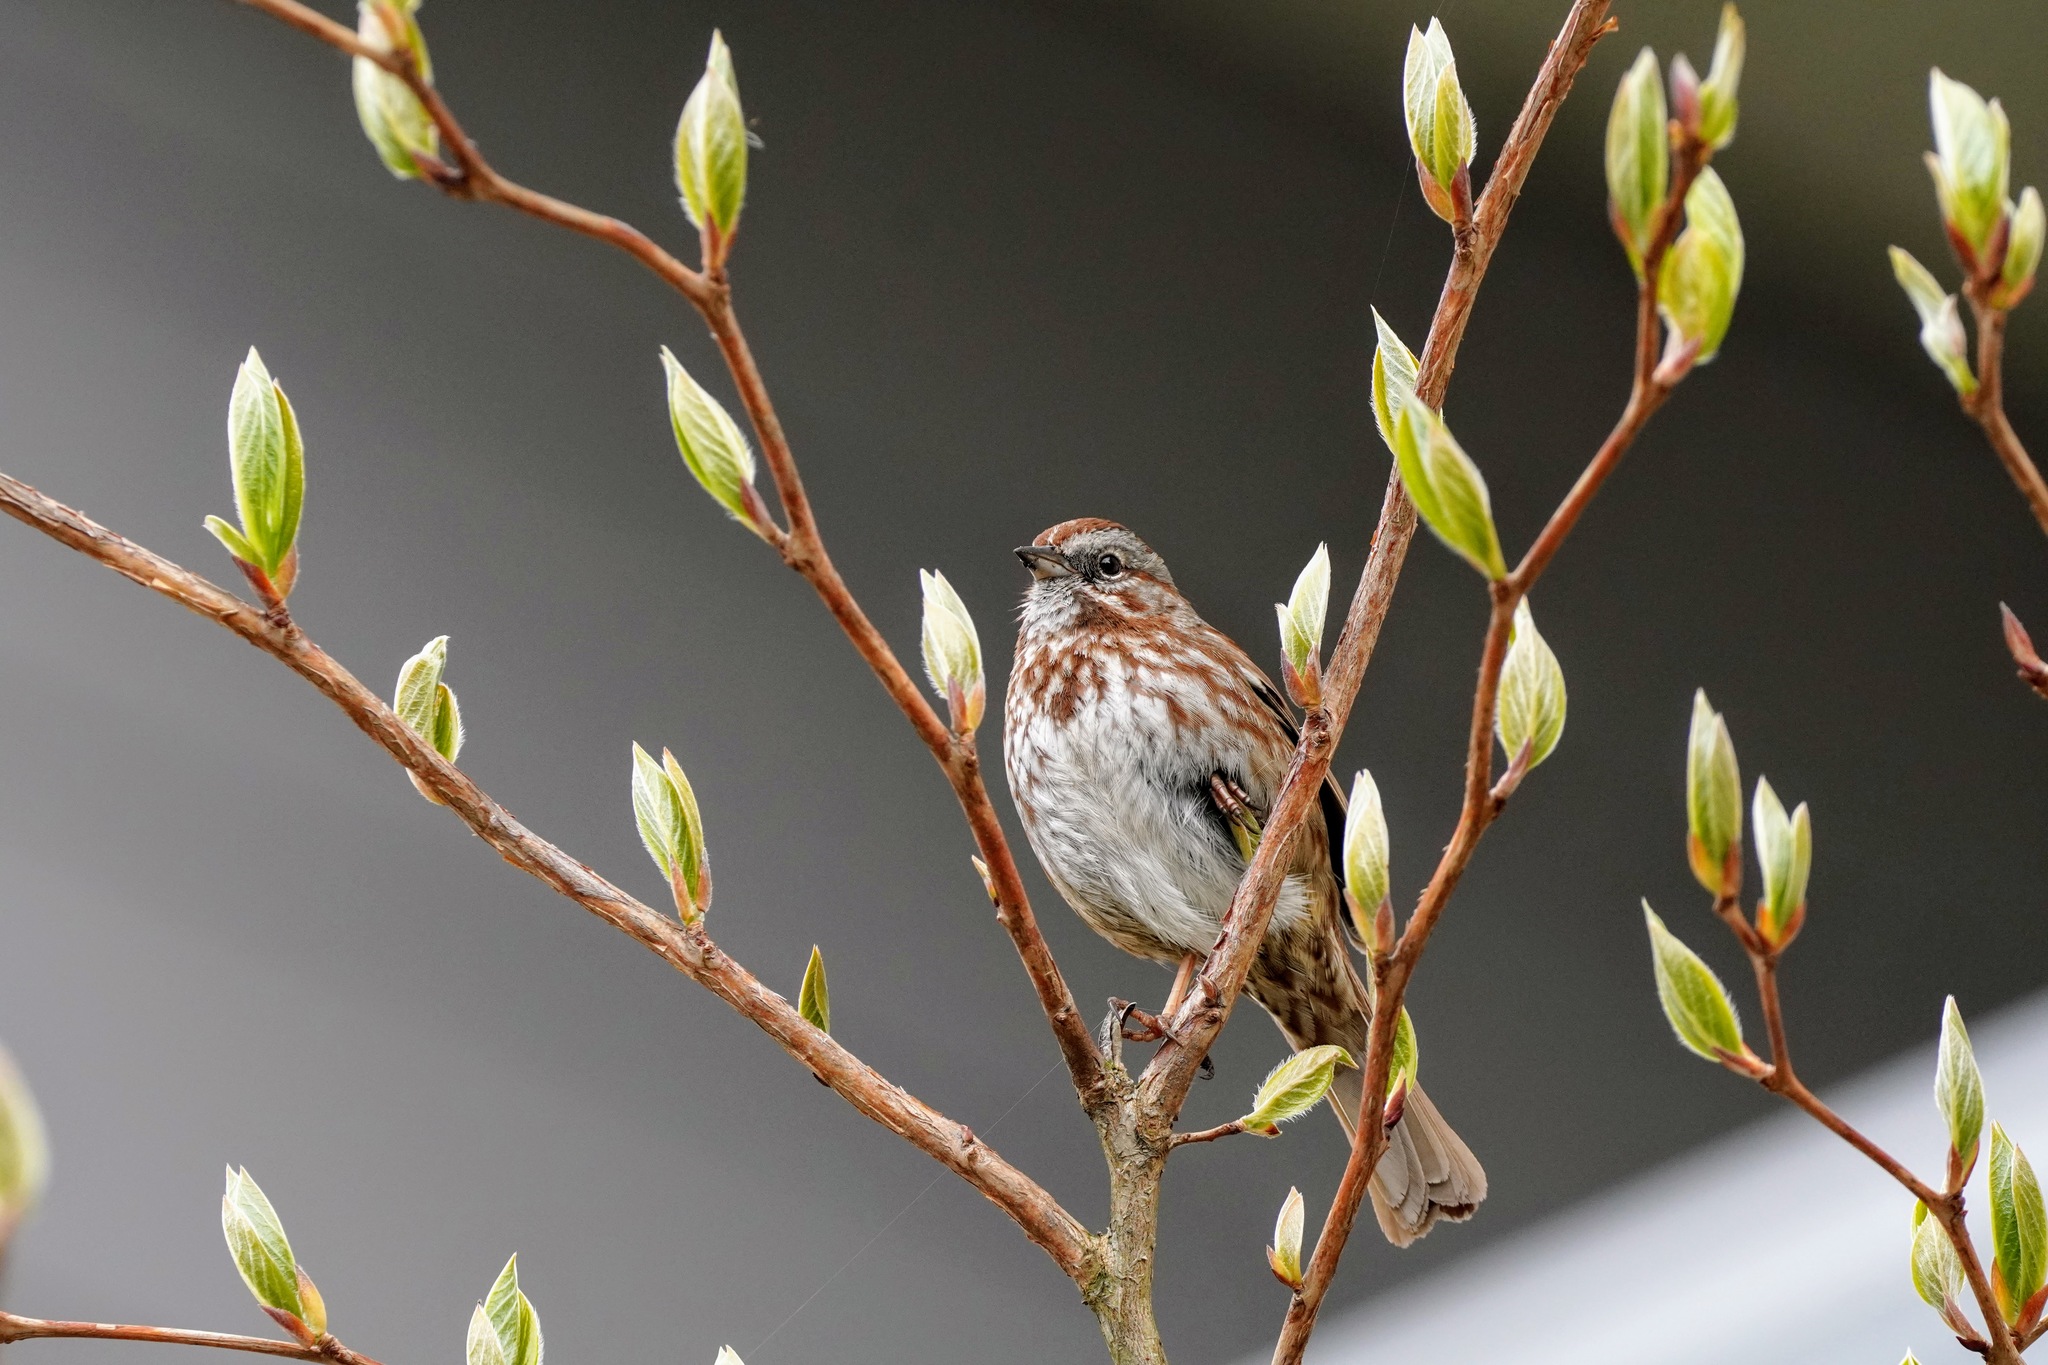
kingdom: Animalia
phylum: Chordata
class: Aves
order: Passeriformes
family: Passerellidae
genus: Melospiza
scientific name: Melospiza melodia
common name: Song sparrow
